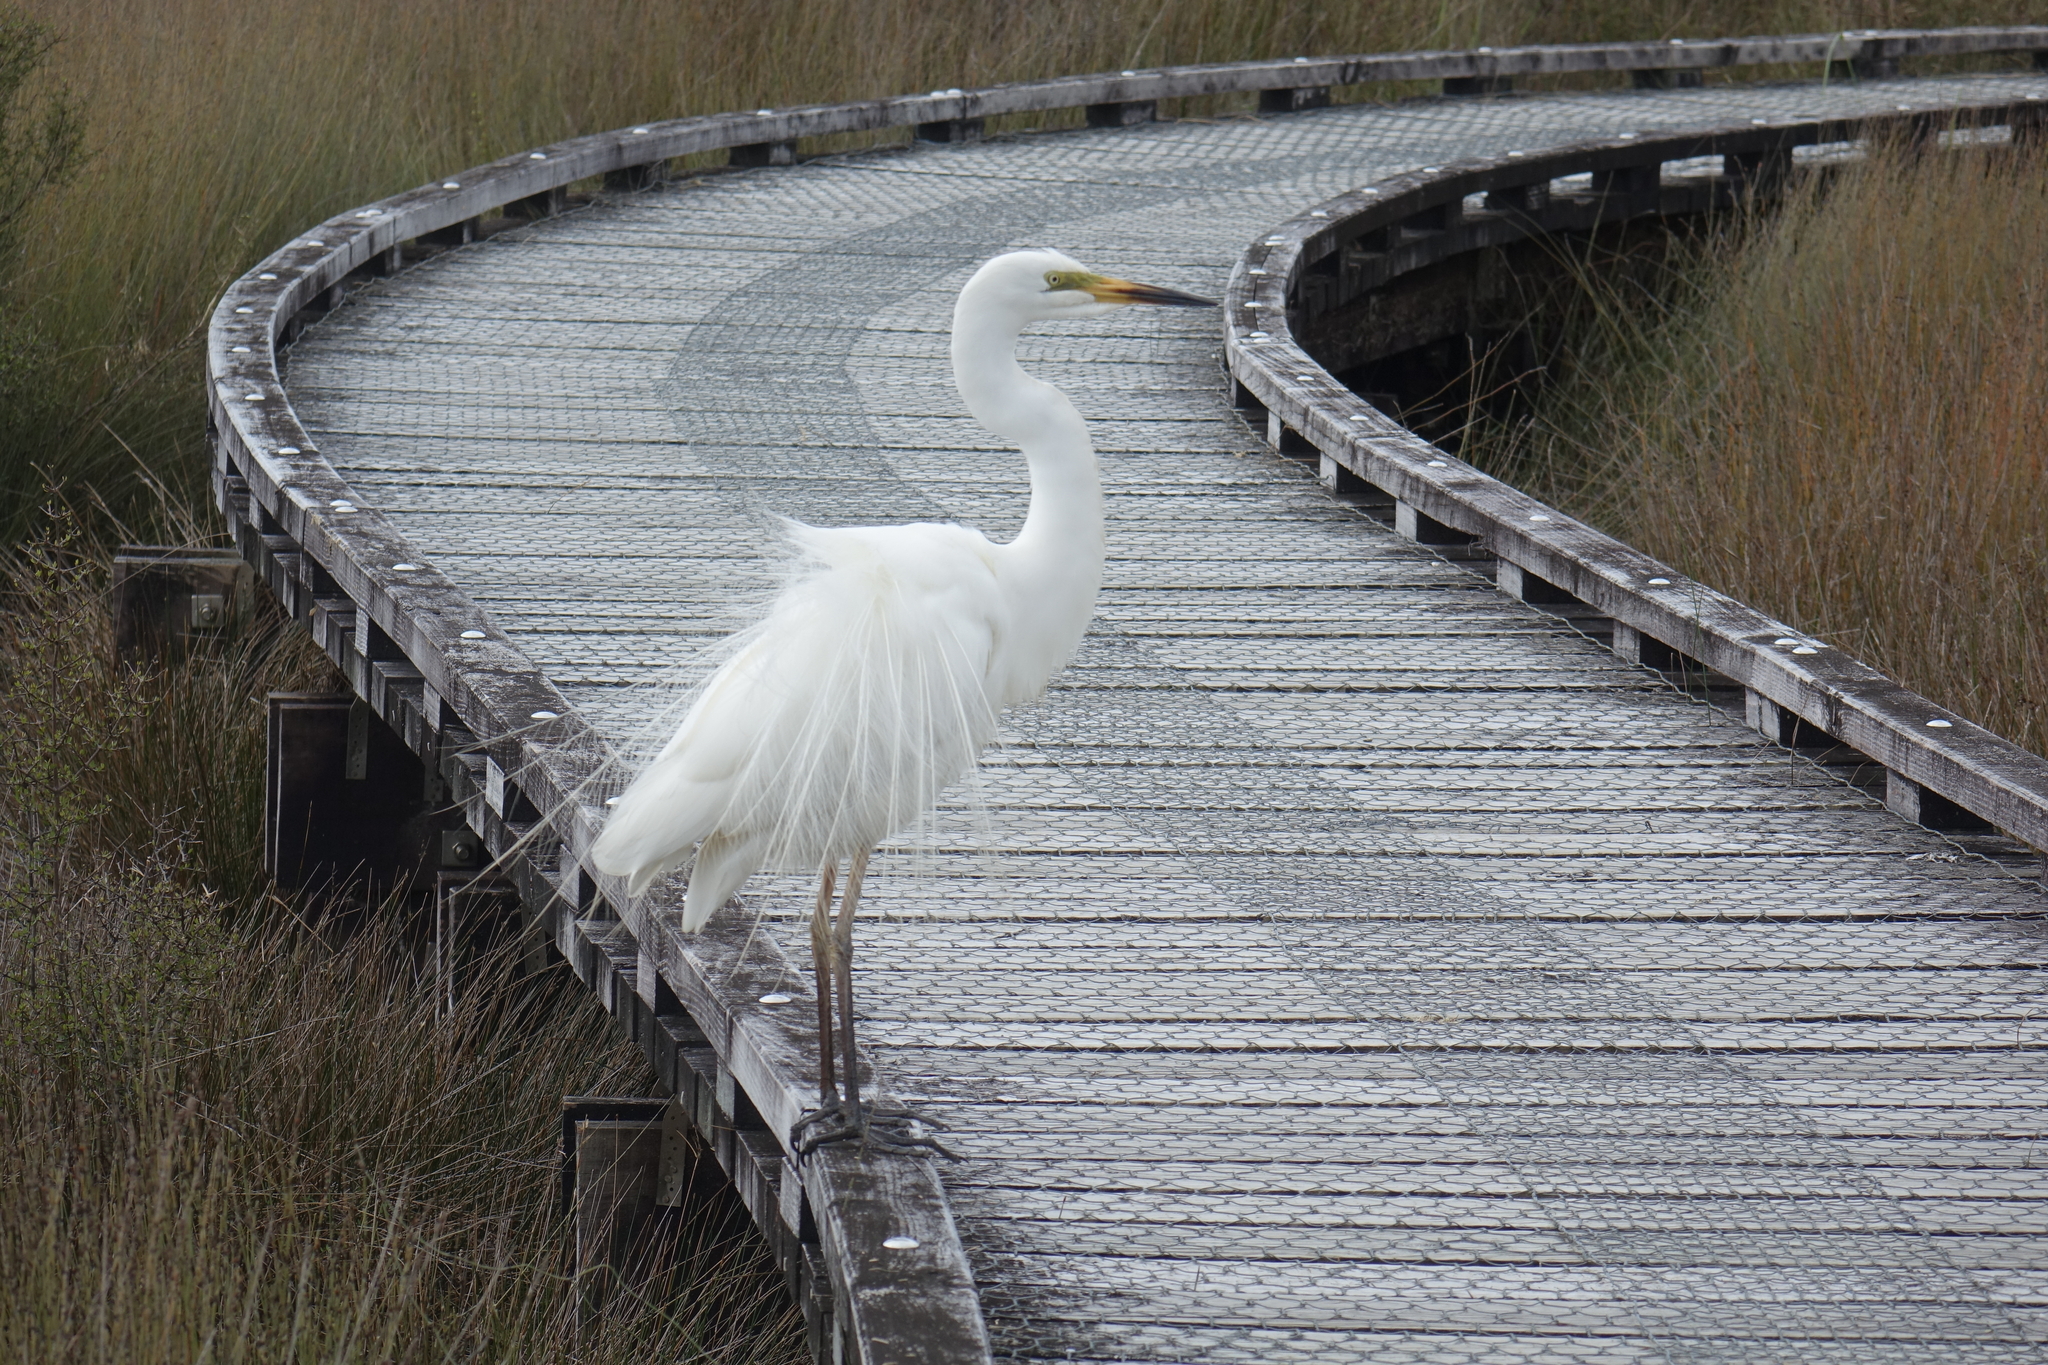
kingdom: Animalia
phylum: Chordata
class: Aves
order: Pelecaniformes
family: Ardeidae
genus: Ardea
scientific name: Ardea modesta
